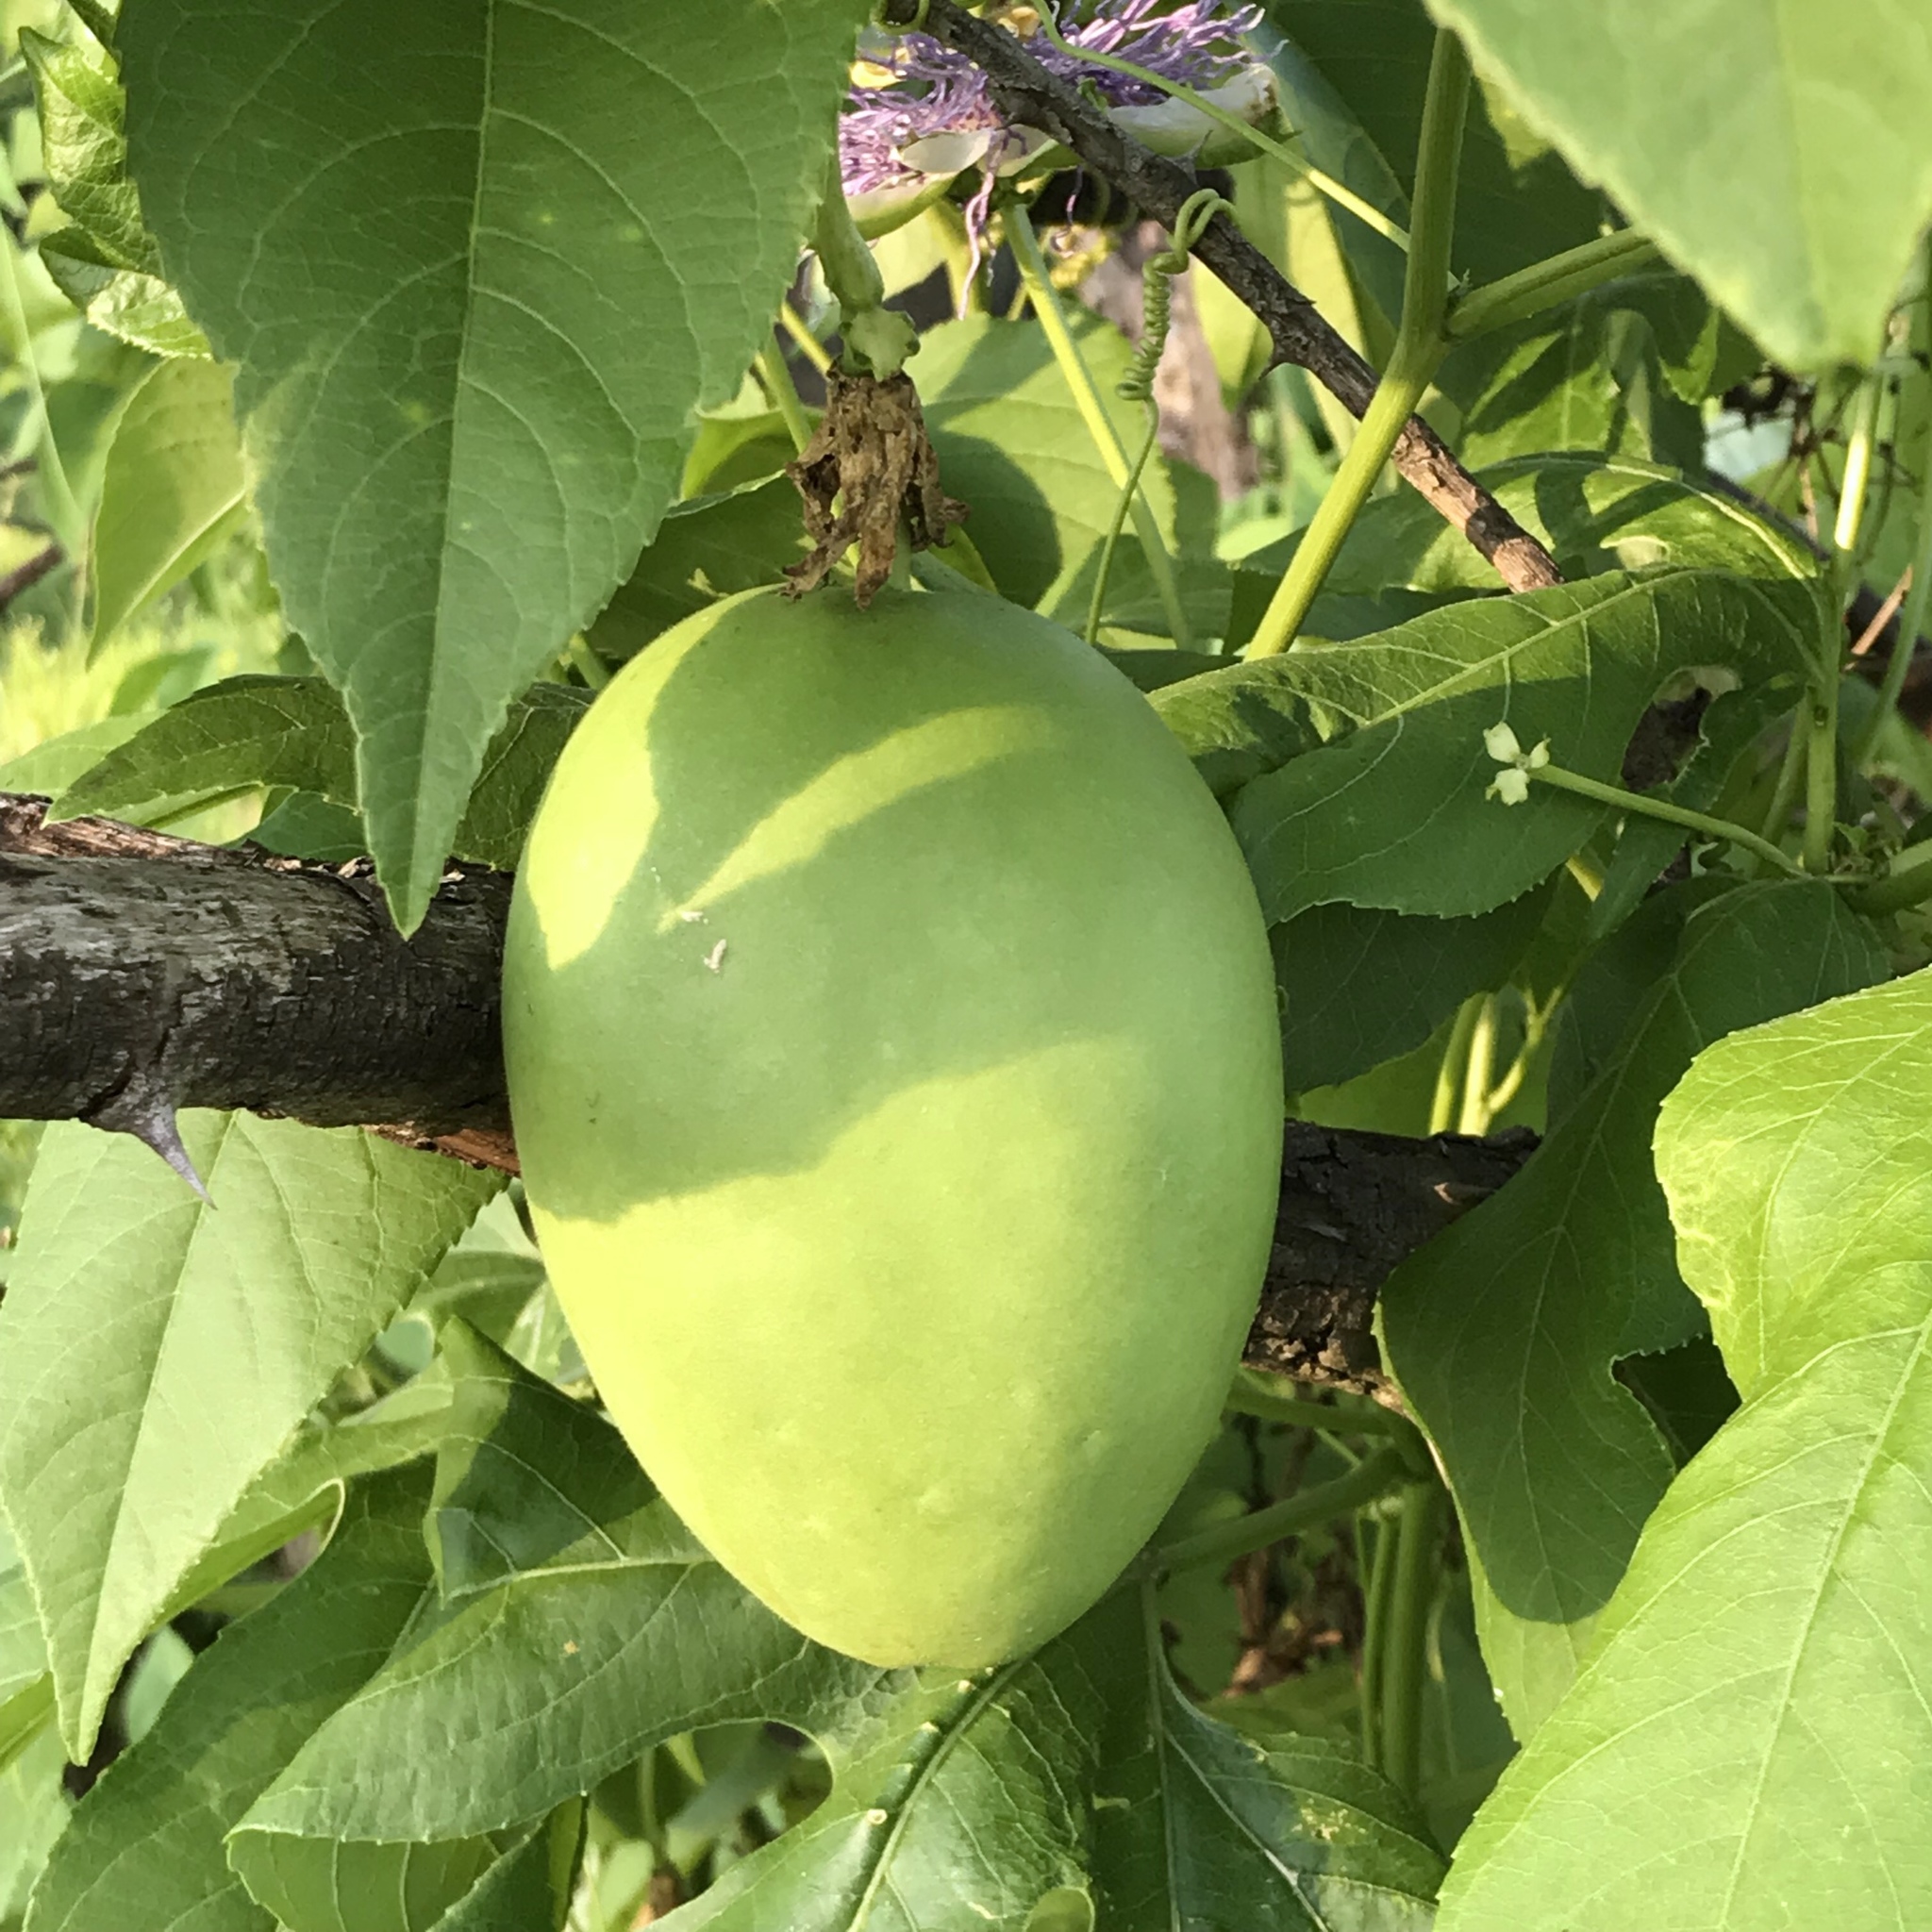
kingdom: Plantae
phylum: Tracheophyta
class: Magnoliopsida
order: Malpighiales
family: Passifloraceae
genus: Passiflora
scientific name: Passiflora incarnata
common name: Apricot-vine
